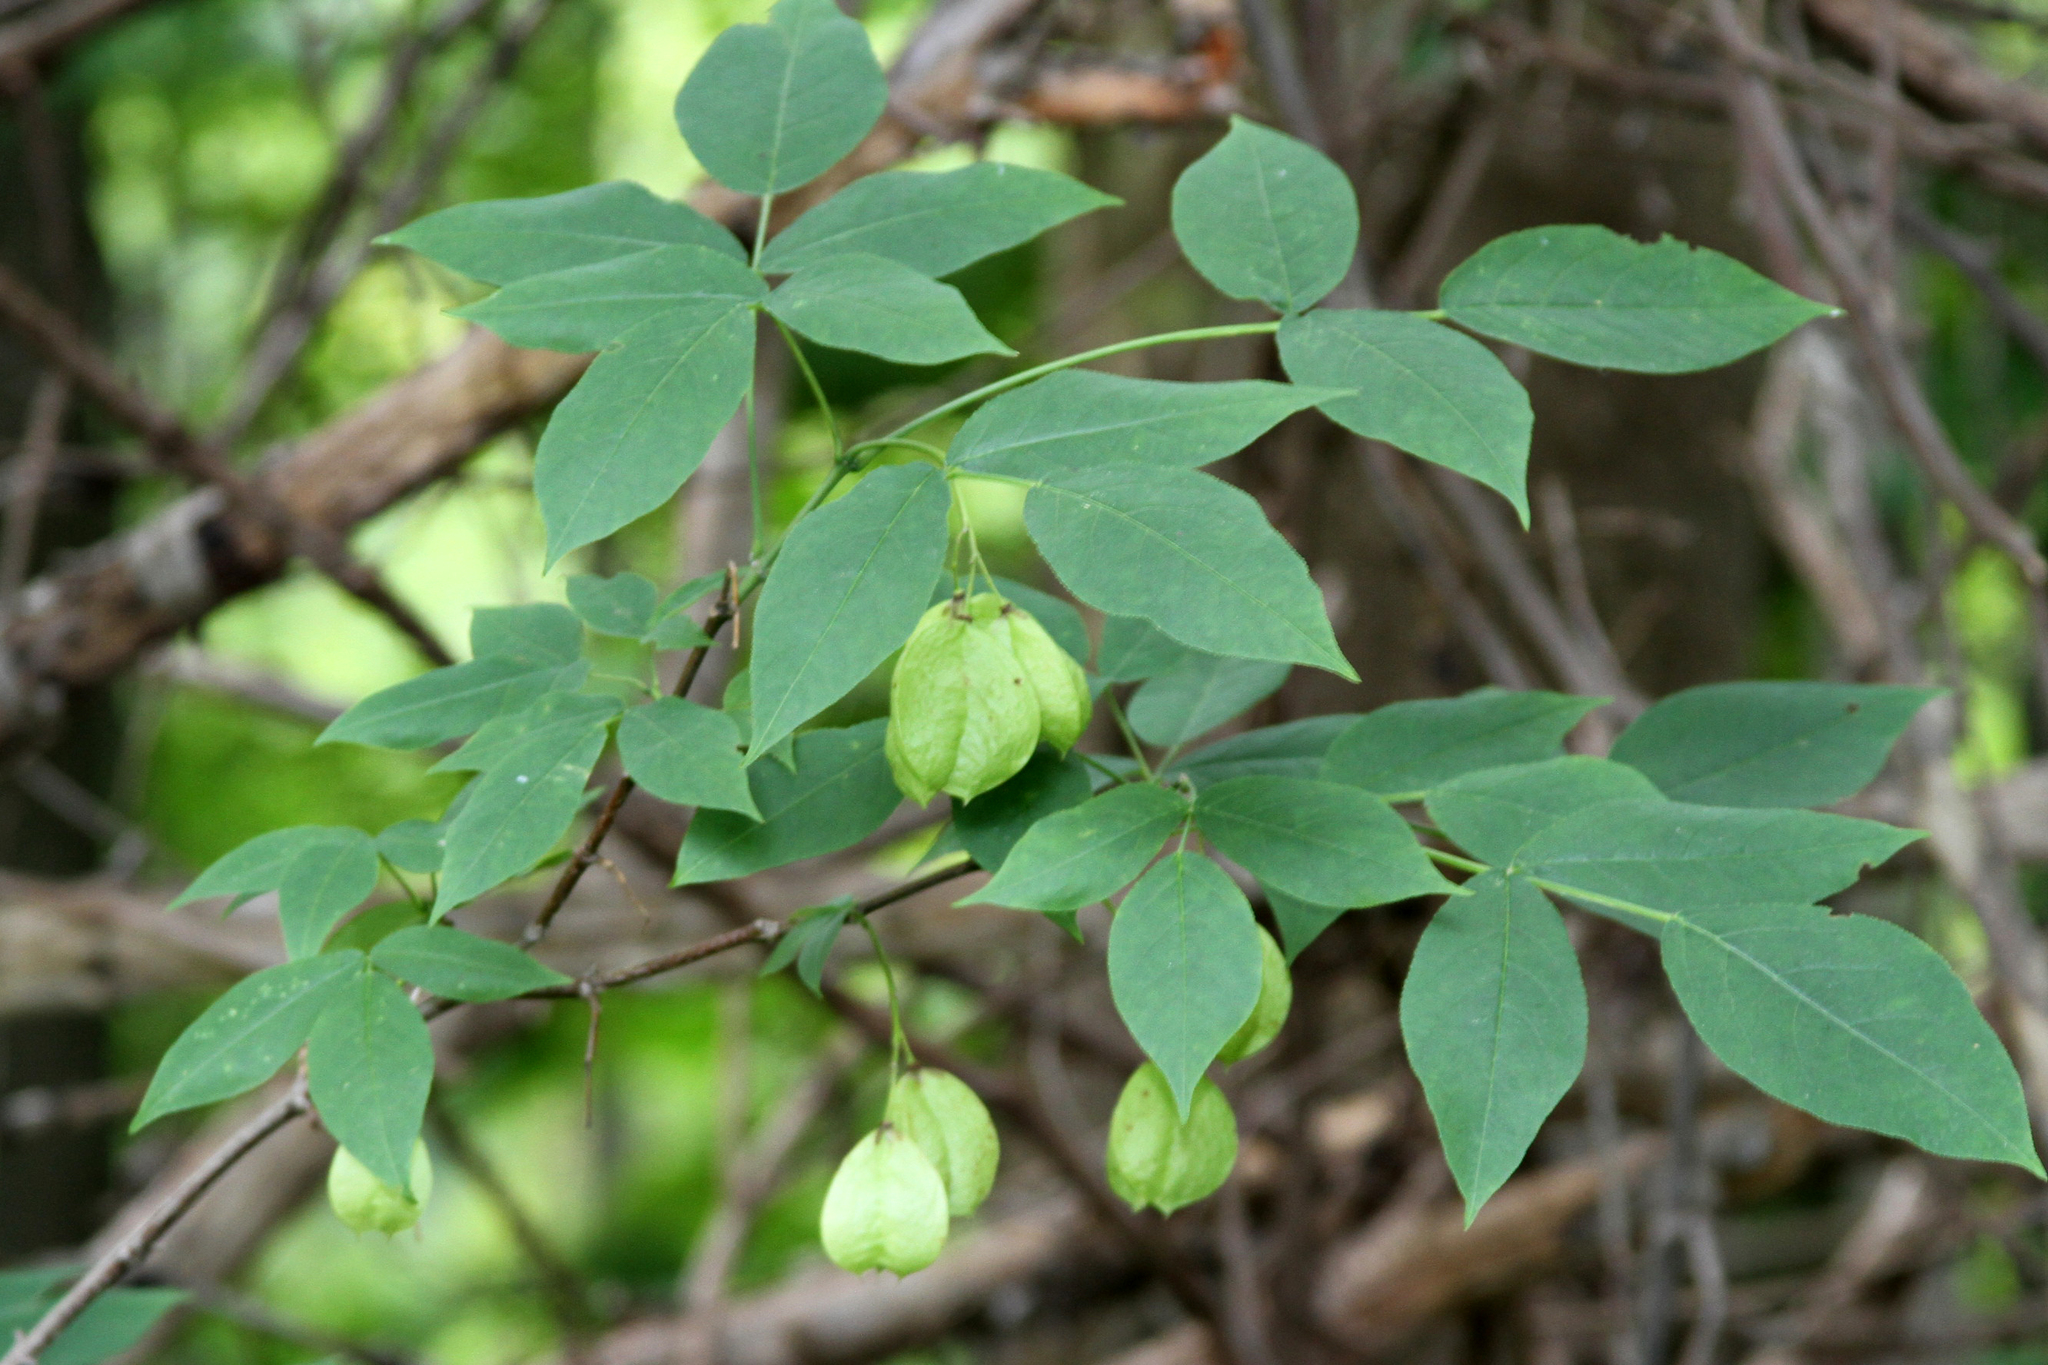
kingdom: Plantae
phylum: Tracheophyta
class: Magnoliopsida
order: Crossosomatales
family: Staphyleaceae
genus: Staphylea
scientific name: Staphylea trifolia
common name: American bladdernut
